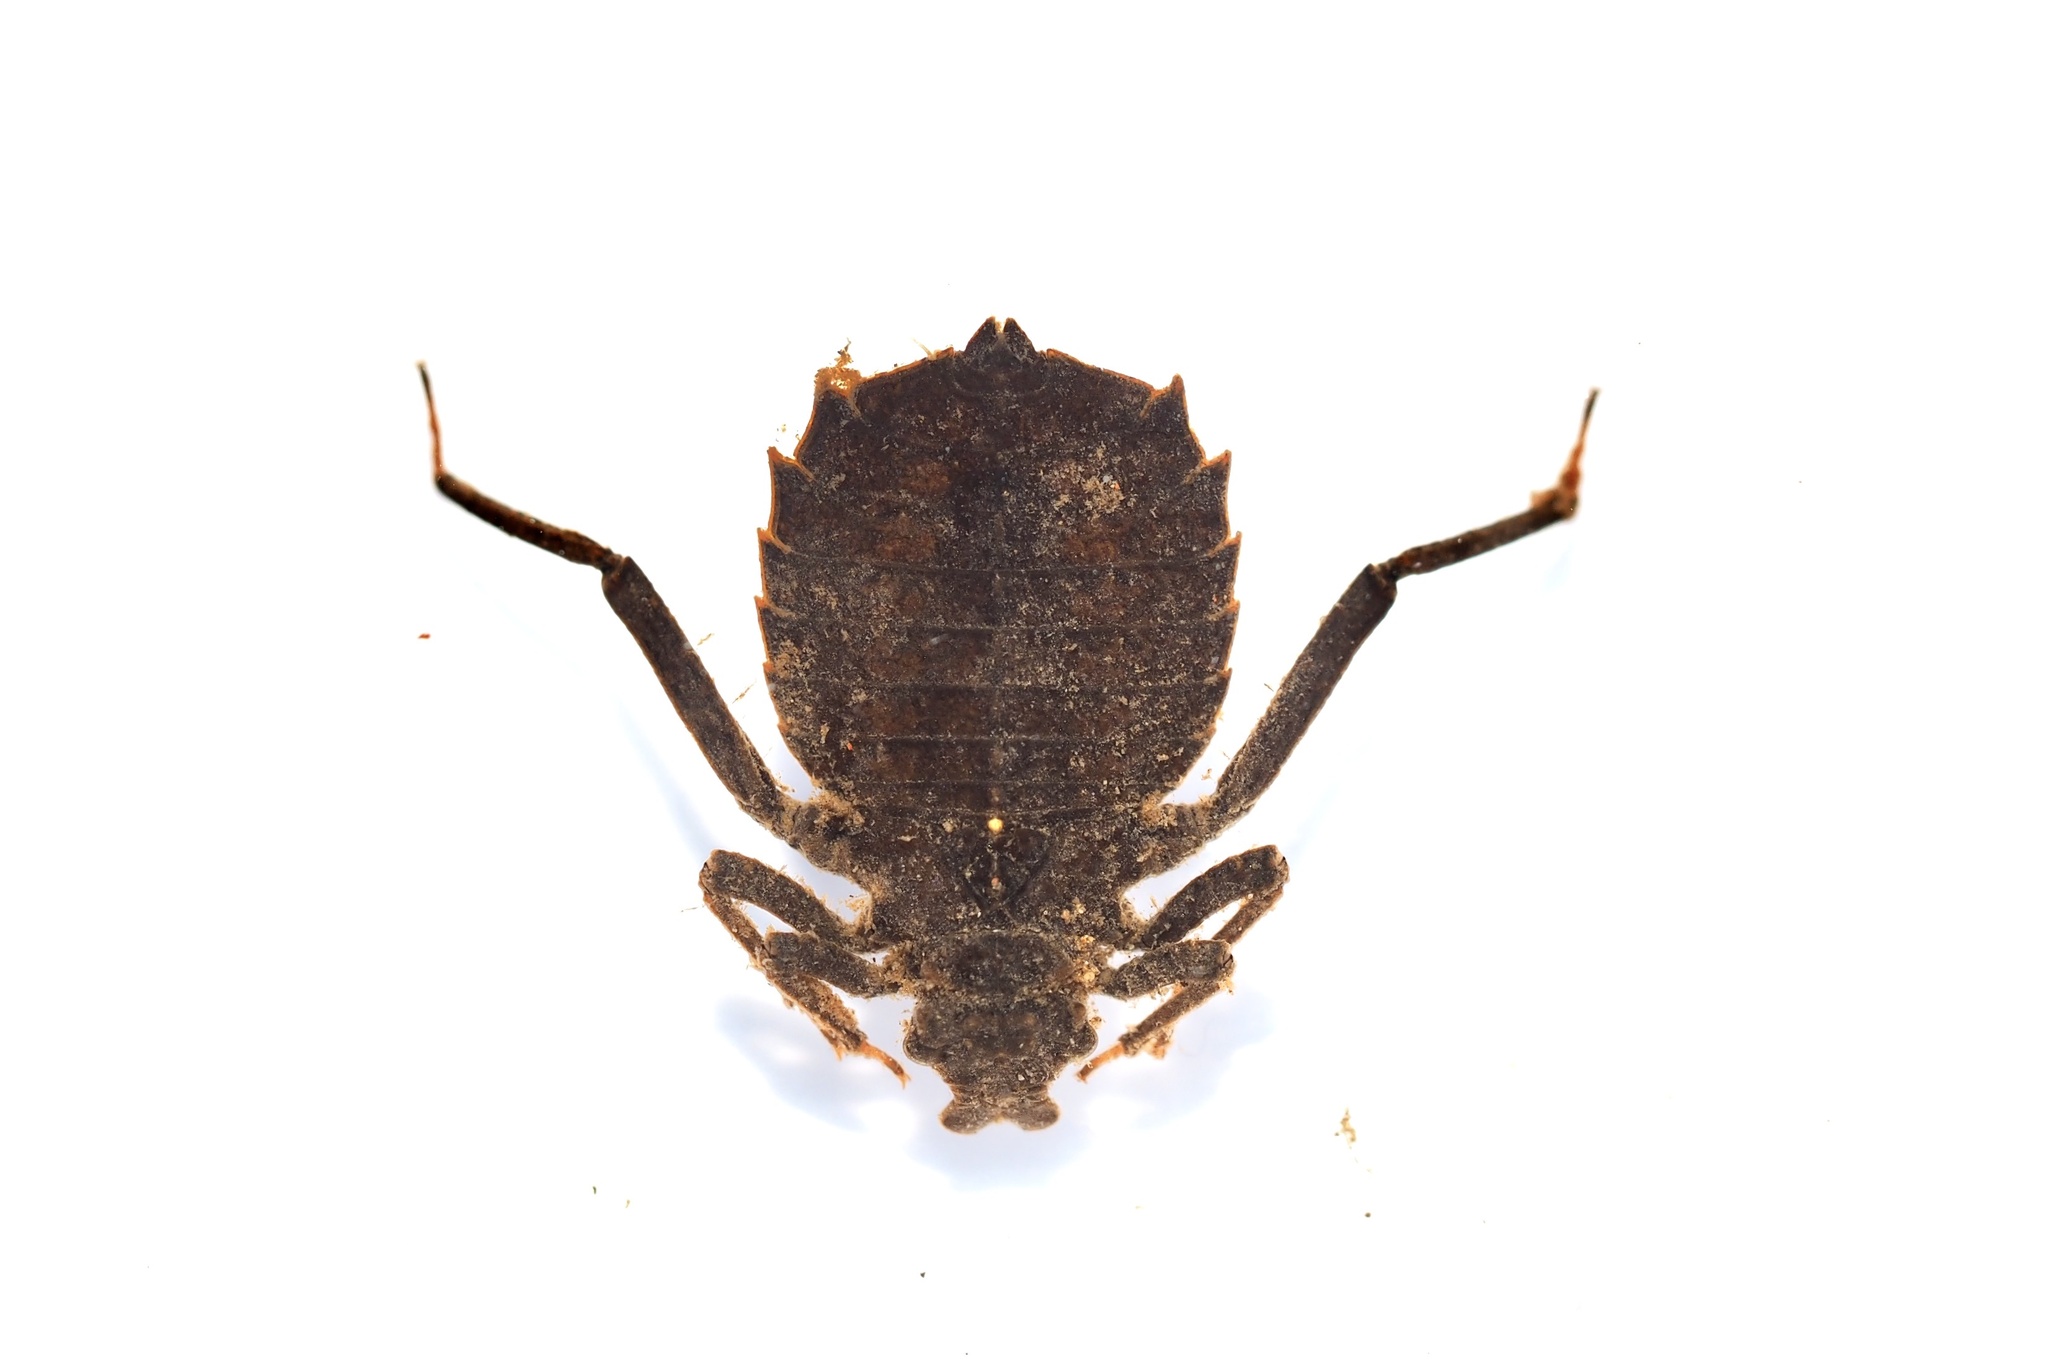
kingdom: Animalia
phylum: Arthropoda
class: Insecta
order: Odonata
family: Gomphidae
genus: Sieboldius
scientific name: Sieboldius albardae
